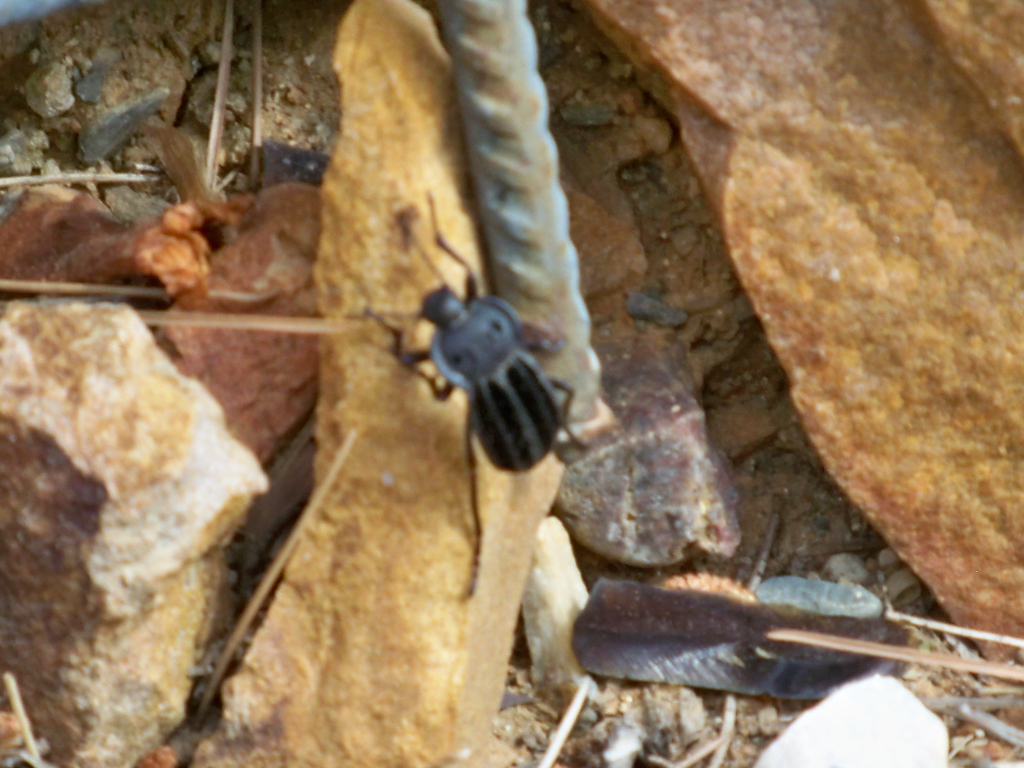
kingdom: Animalia
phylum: Arthropoda
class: Insecta
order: Coleoptera
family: Tenebrionidae
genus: Alphasida
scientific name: Alphasida holosericea
